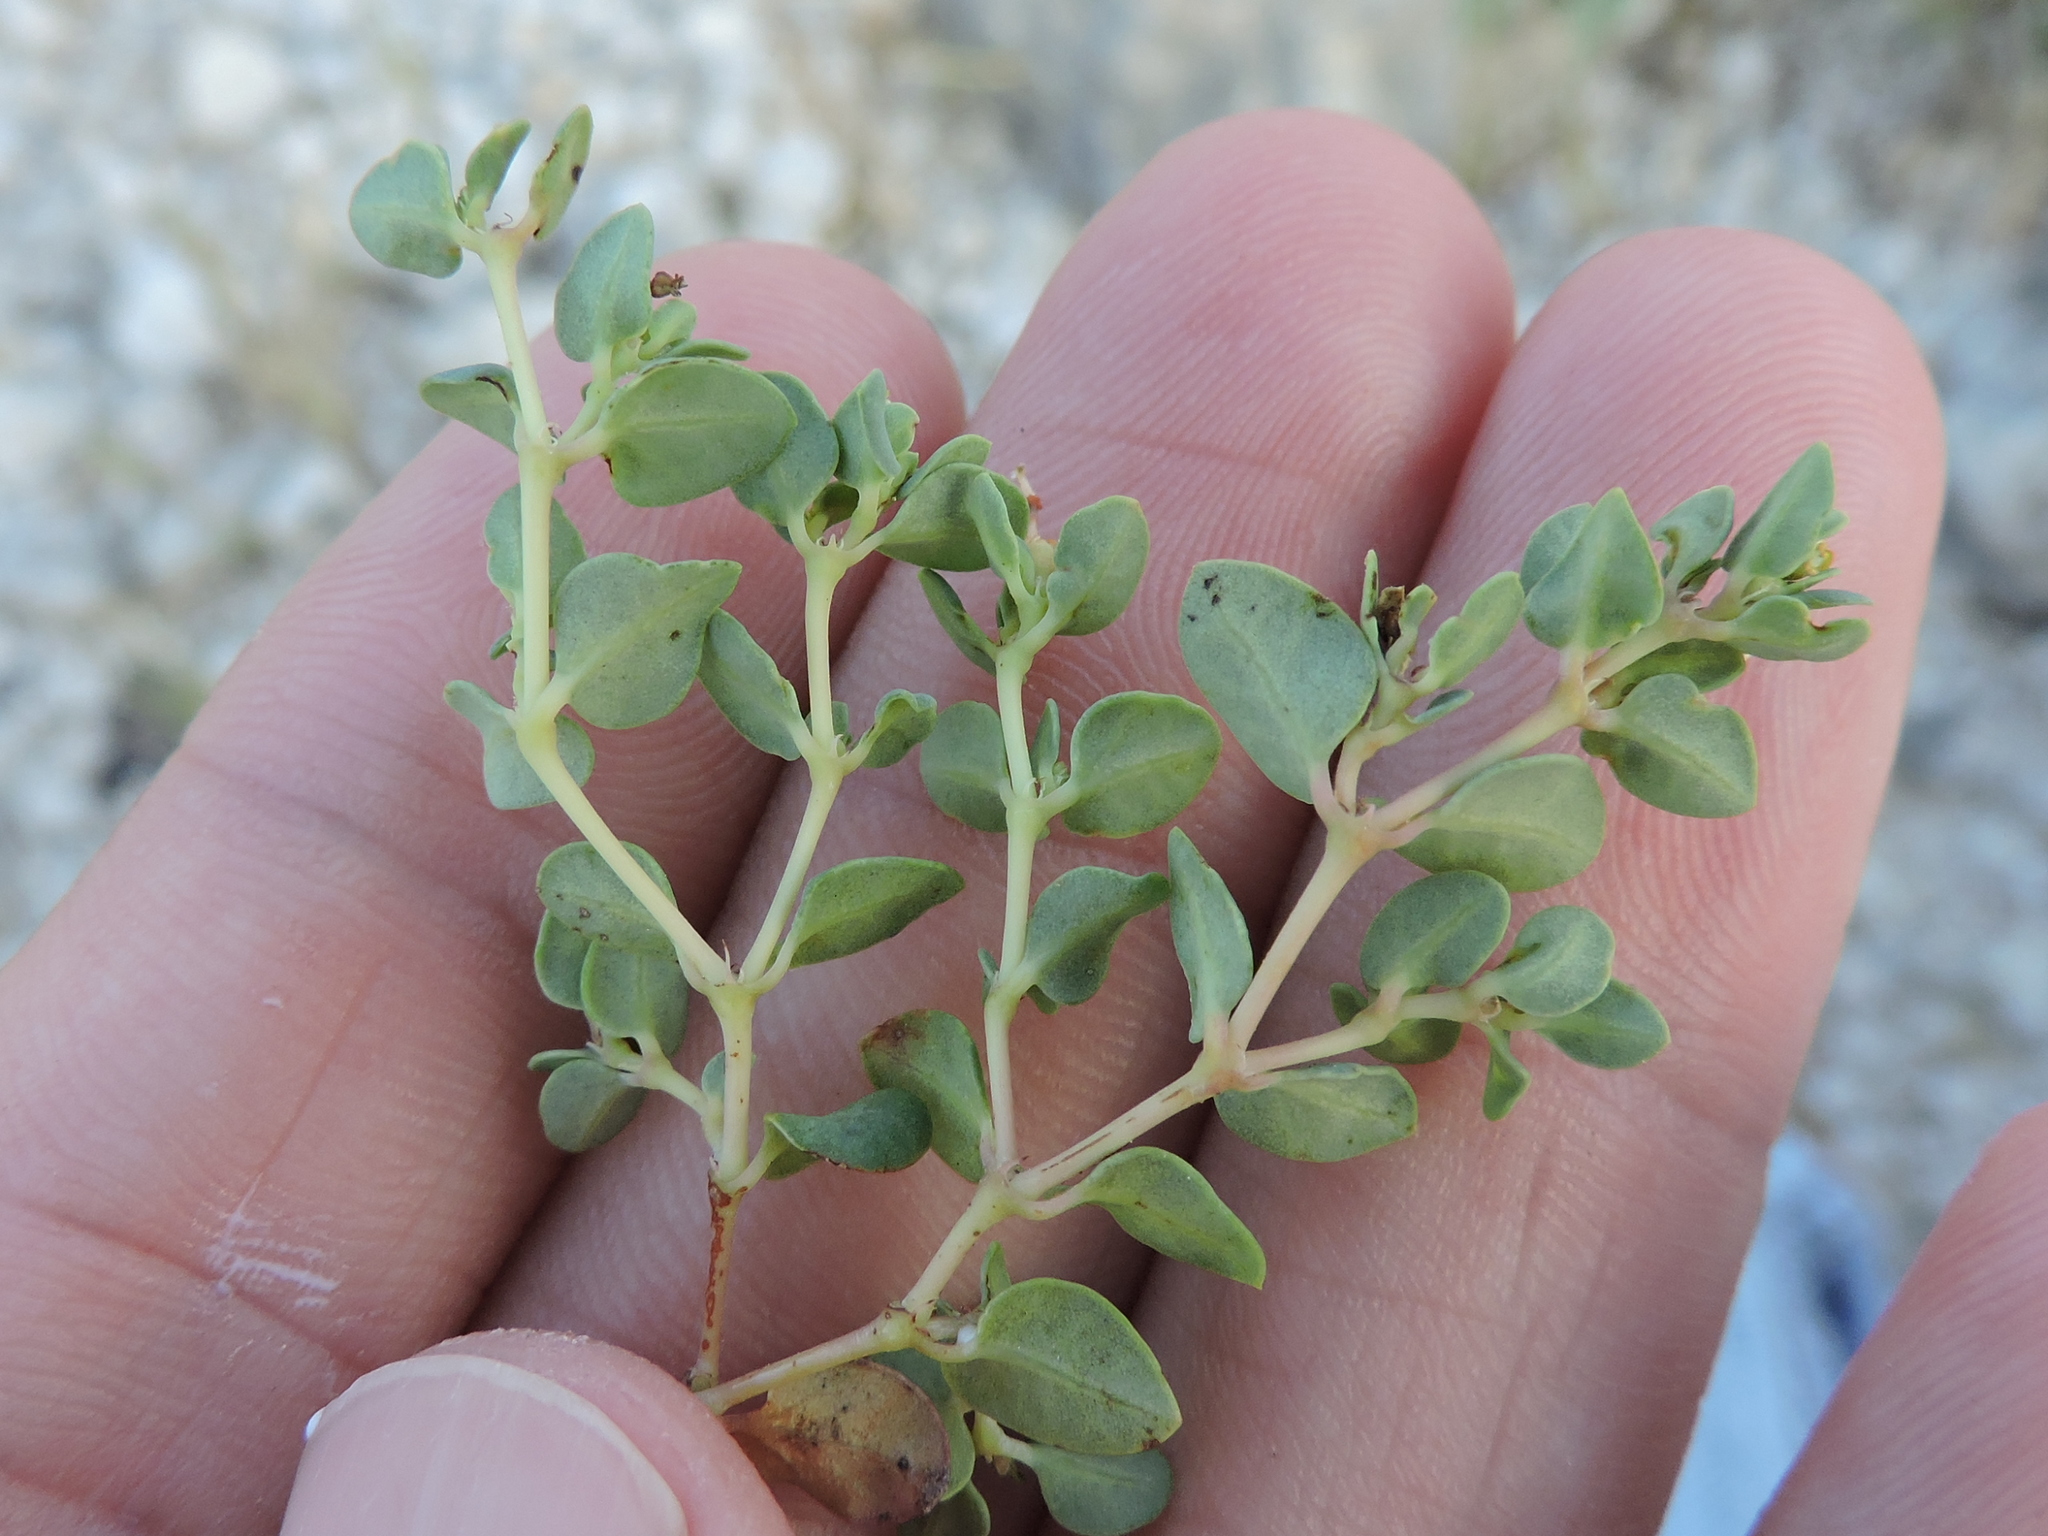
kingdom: Plantae
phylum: Tracheophyta
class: Magnoliopsida
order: Malpighiales
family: Euphorbiaceae
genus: Euphorbia
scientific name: Euphorbia fendleri
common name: Fendler's euphorbia
